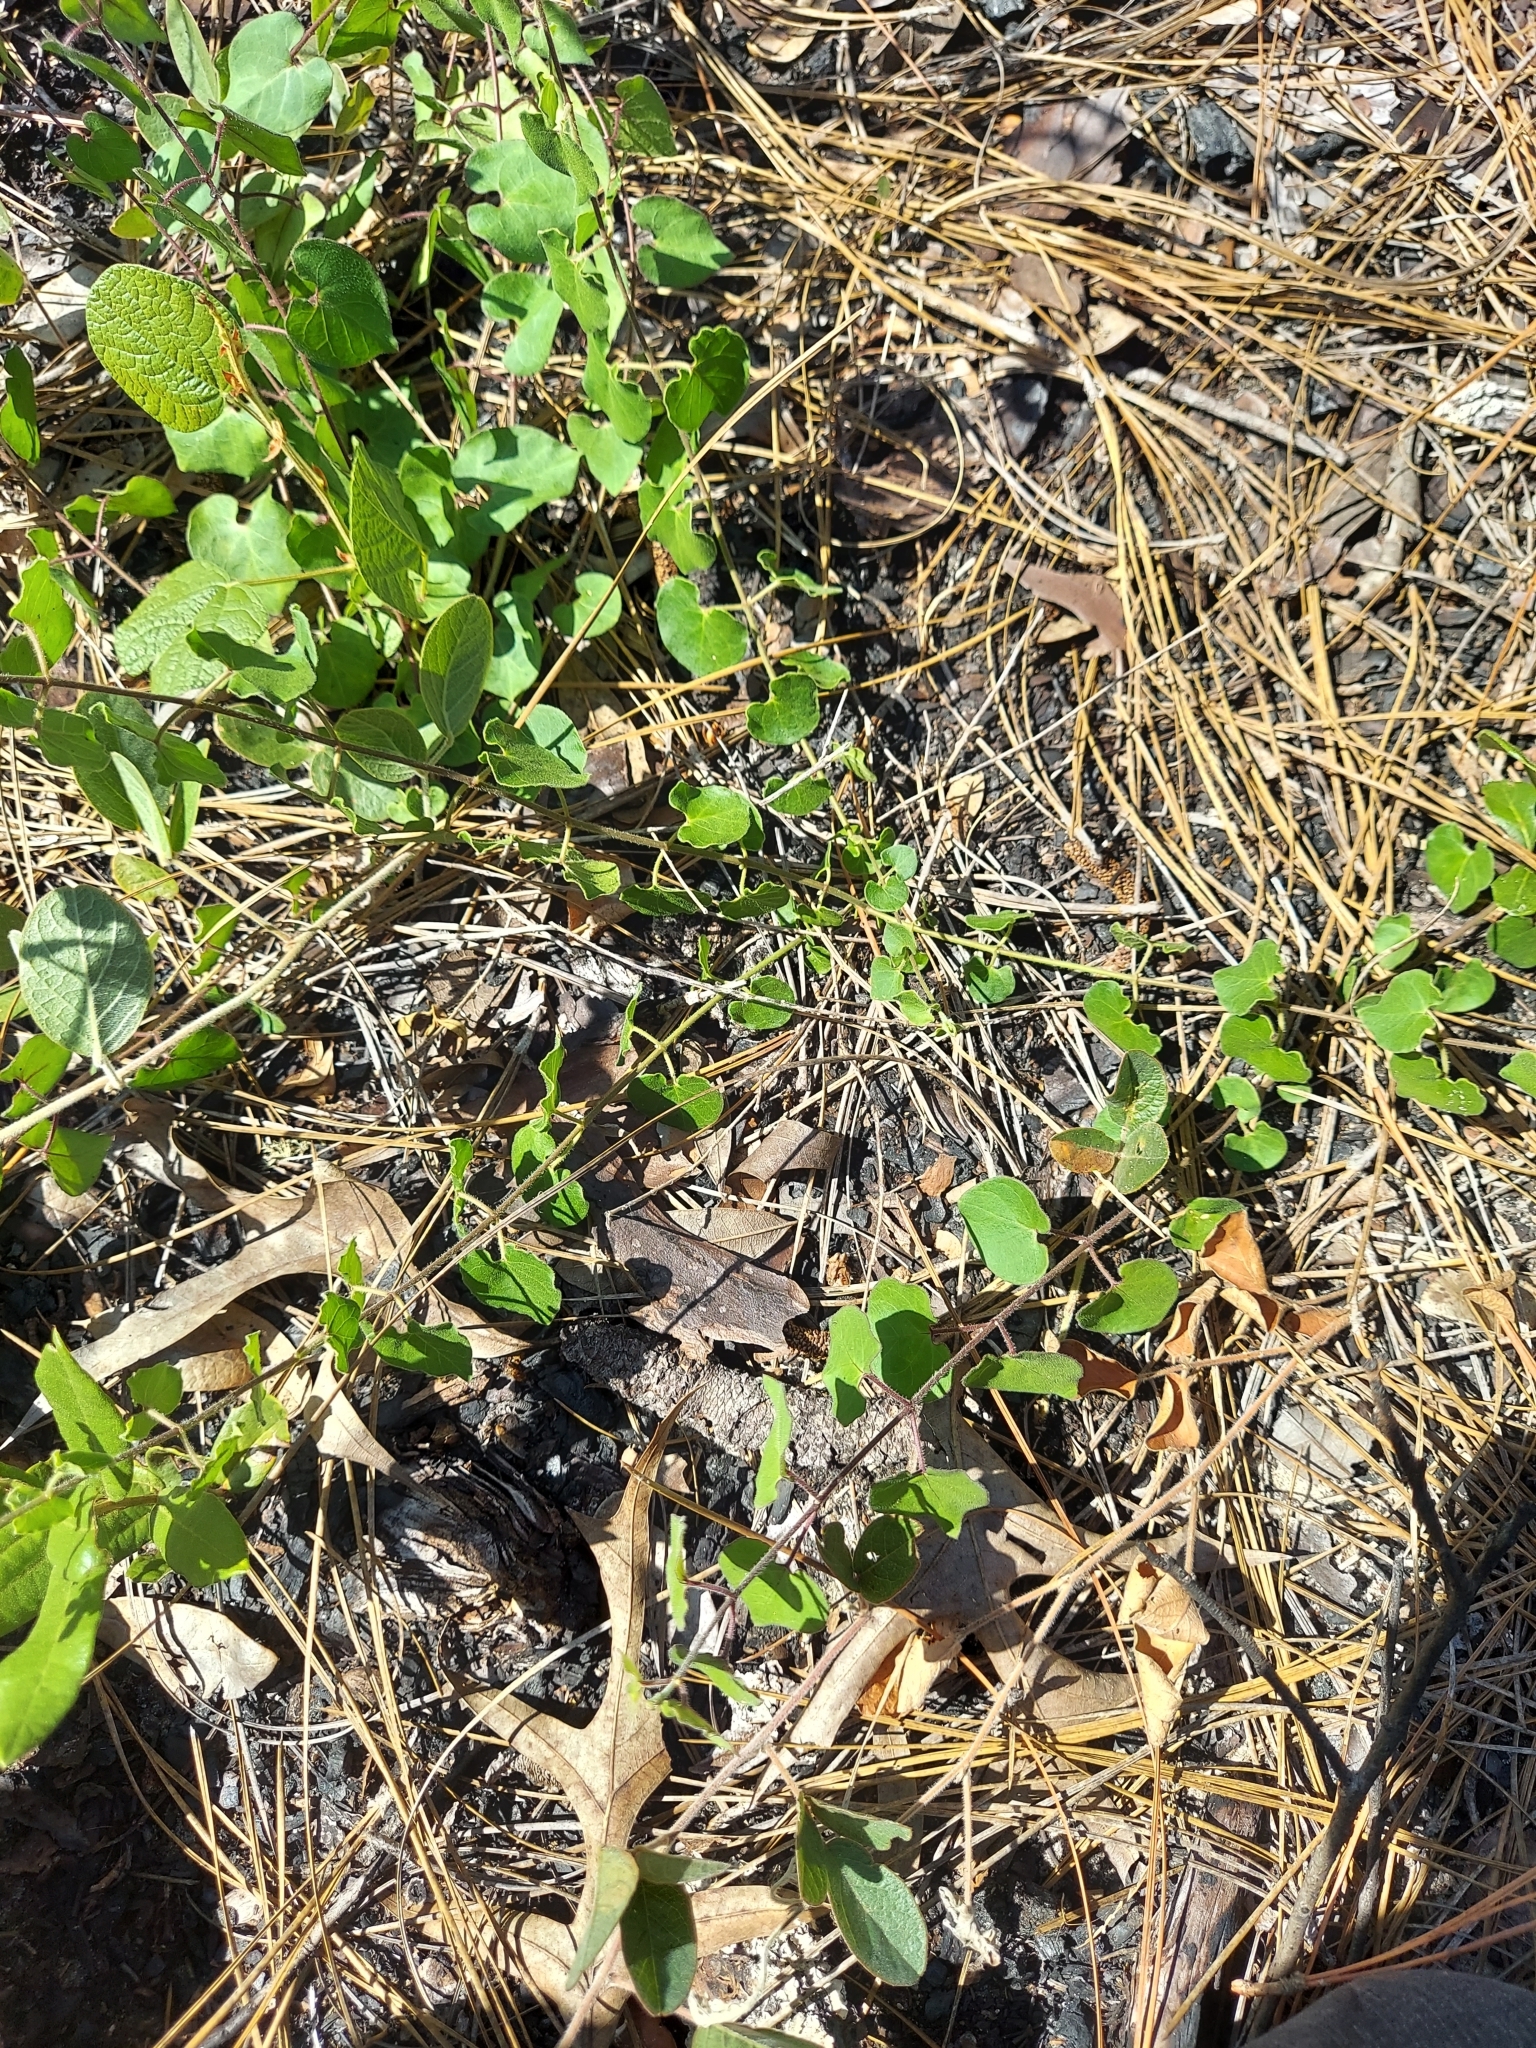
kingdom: Plantae
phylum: Tracheophyta
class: Magnoliopsida
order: Gentianales
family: Apocynaceae
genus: Chthamalia
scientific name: Chthamalia pubiflora
